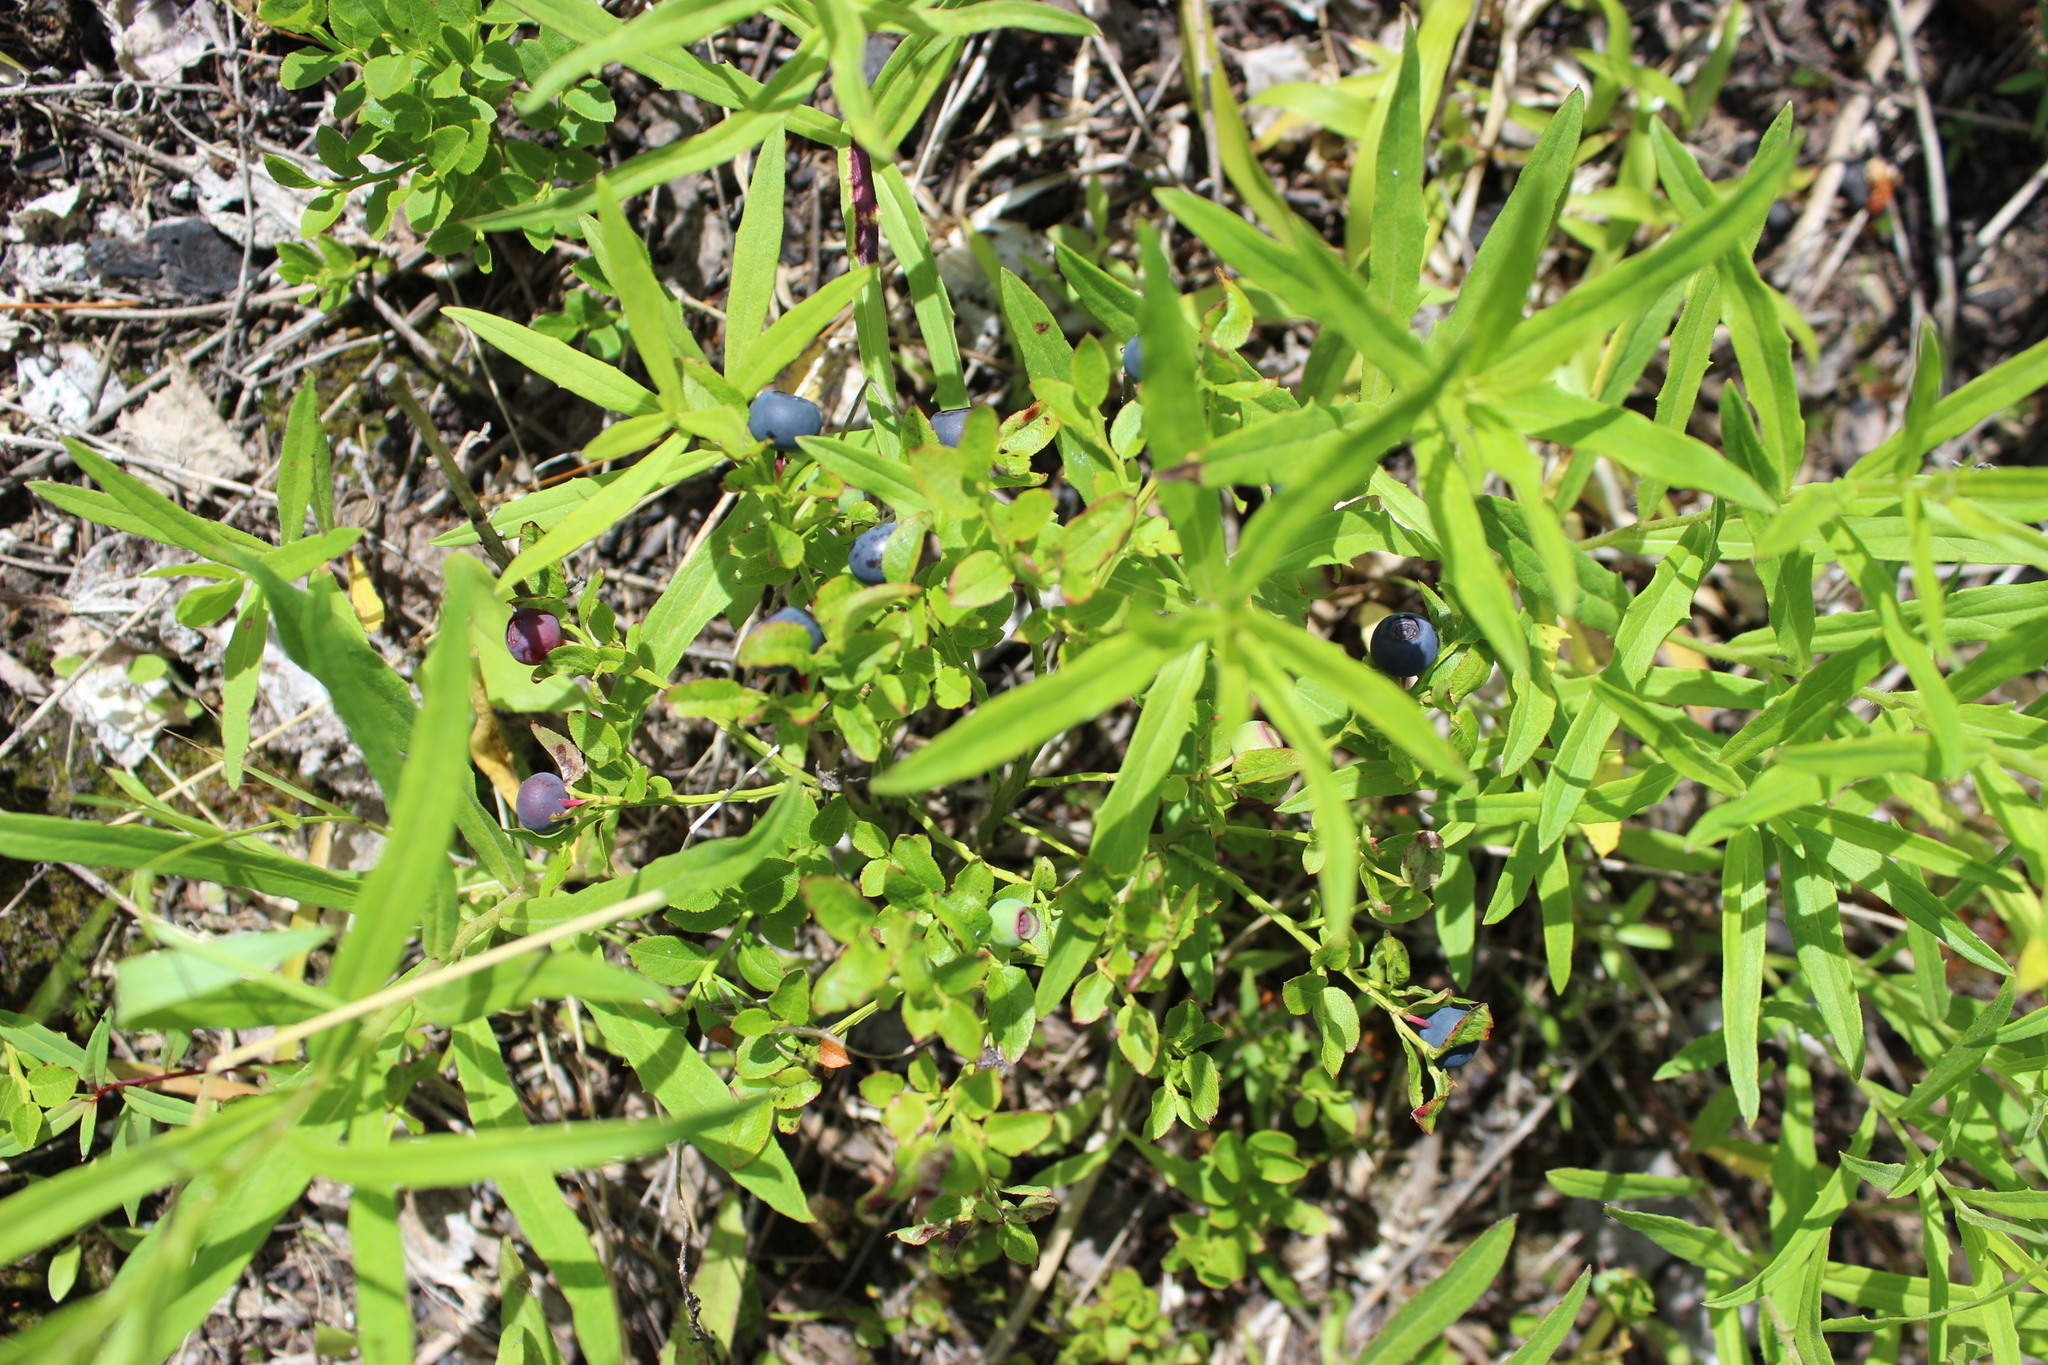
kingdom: Plantae
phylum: Tracheophyta
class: Magnoliopsida
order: Ericales
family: Ericaceae
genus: Vaccinium
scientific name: Vaccinium myrtillus
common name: Bilberry
